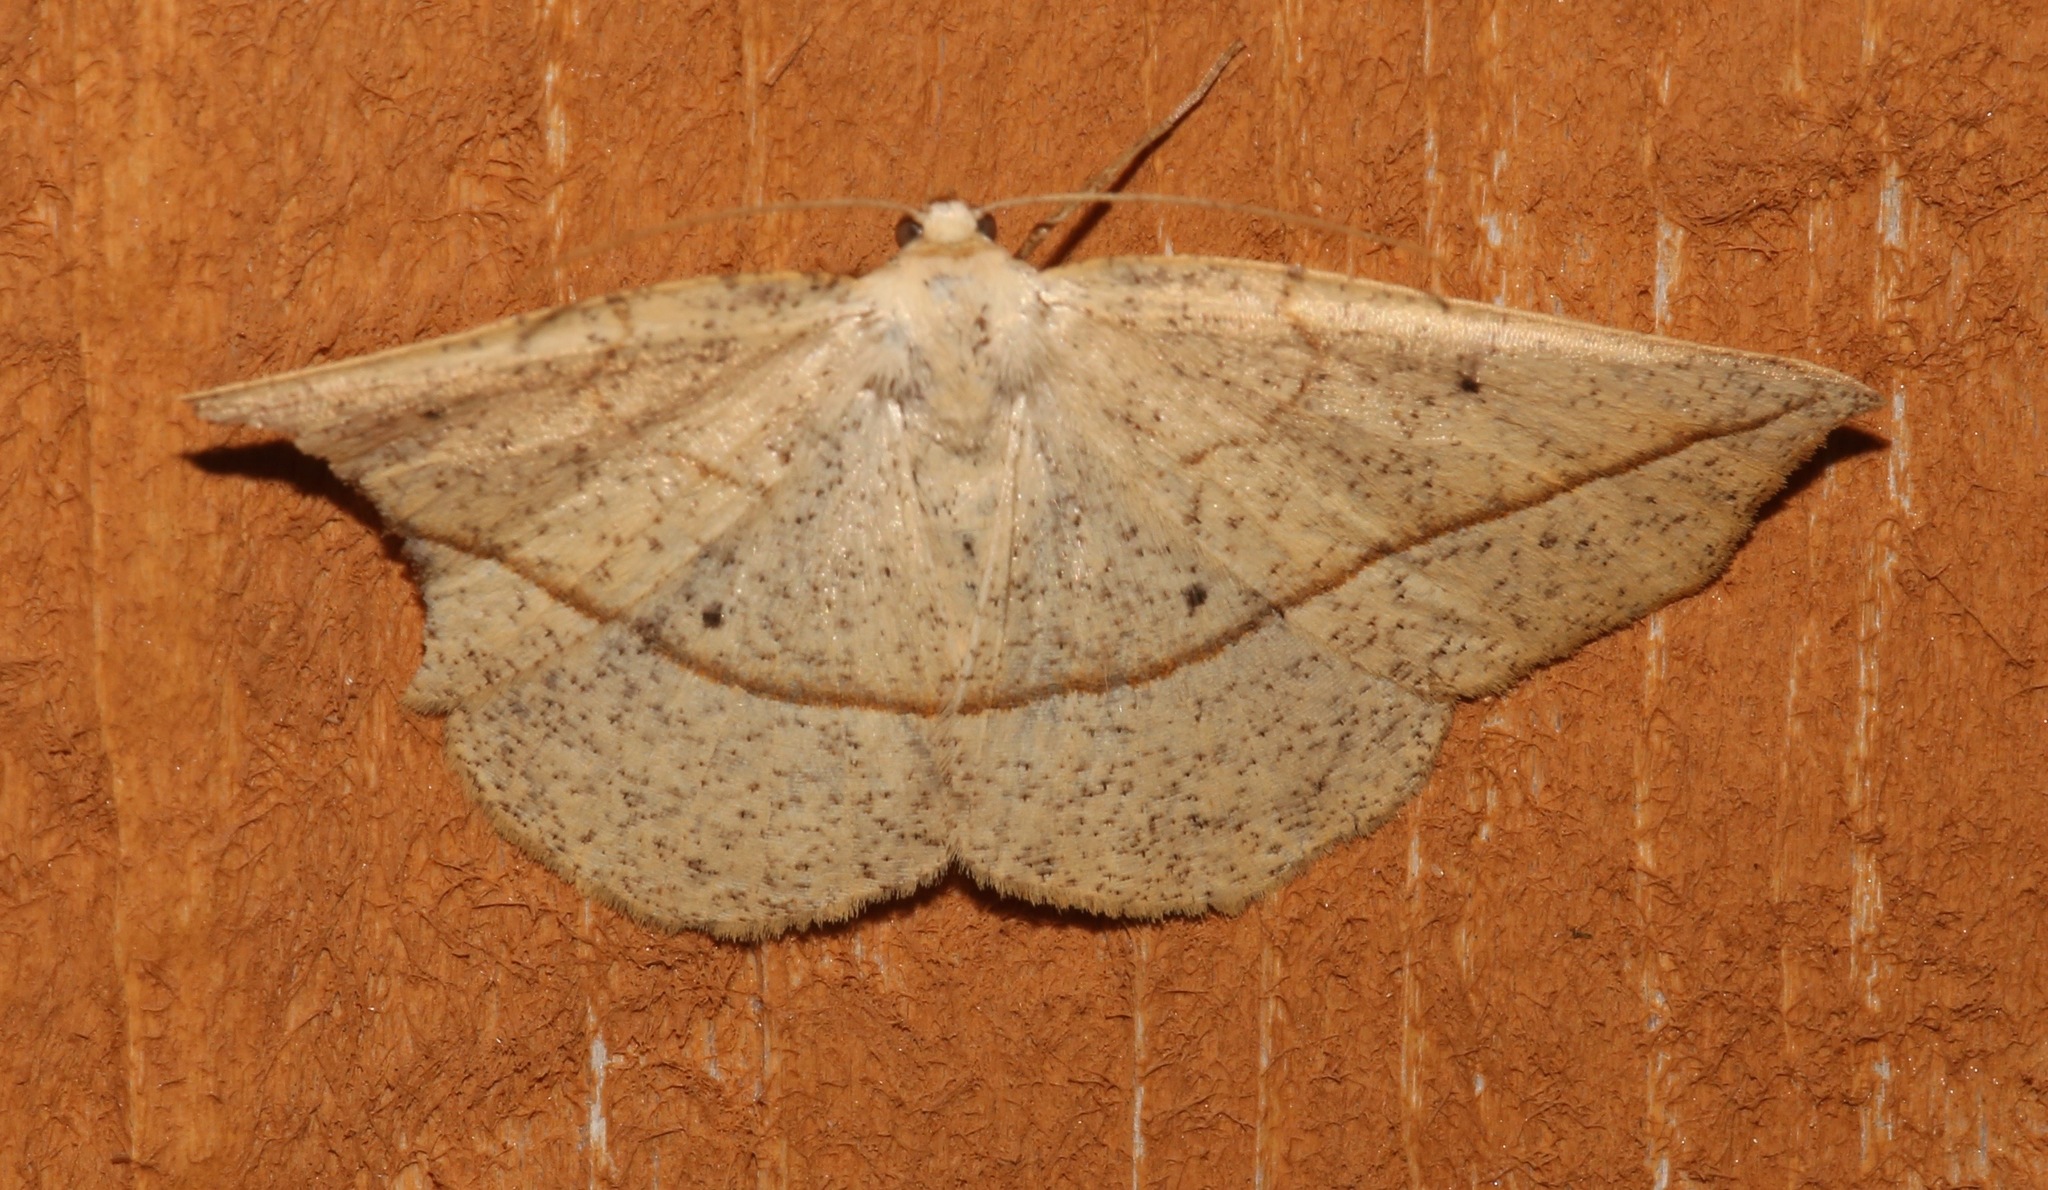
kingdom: Animalia
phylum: Arthropoda
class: Insecta
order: Lepidoptera
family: Geometridae
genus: Eusarca
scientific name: Eusarca confusaria
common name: Confused eusarca
